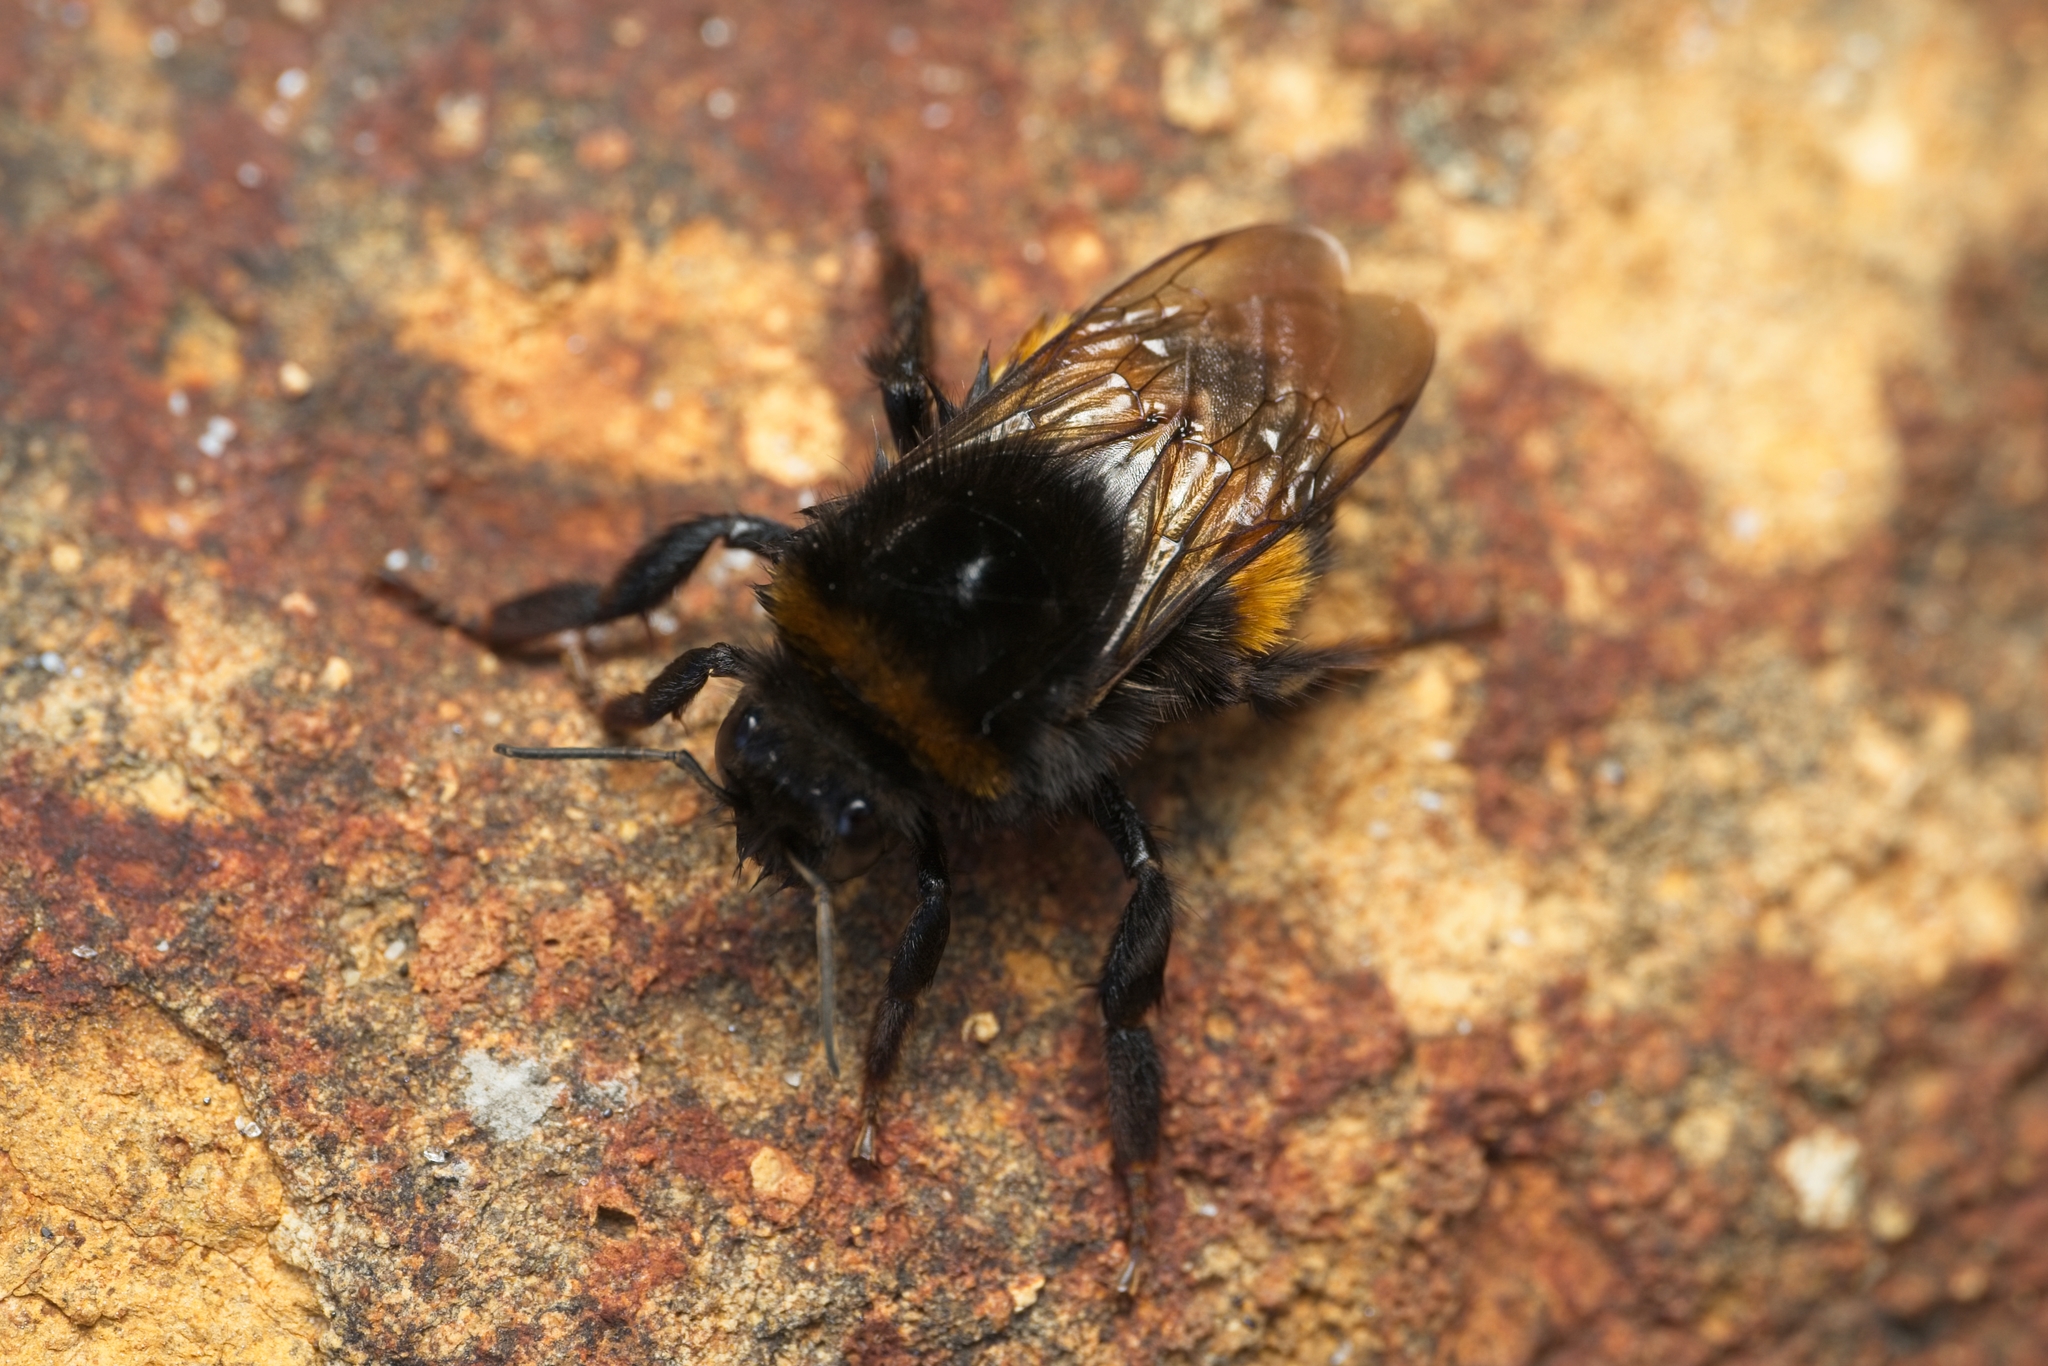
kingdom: Animalia
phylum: Arthropoda
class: Insecta
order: Hymenoptera
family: Apidae
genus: Bombus
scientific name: Bombus terrestris
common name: Buff-tailed bumblebee
